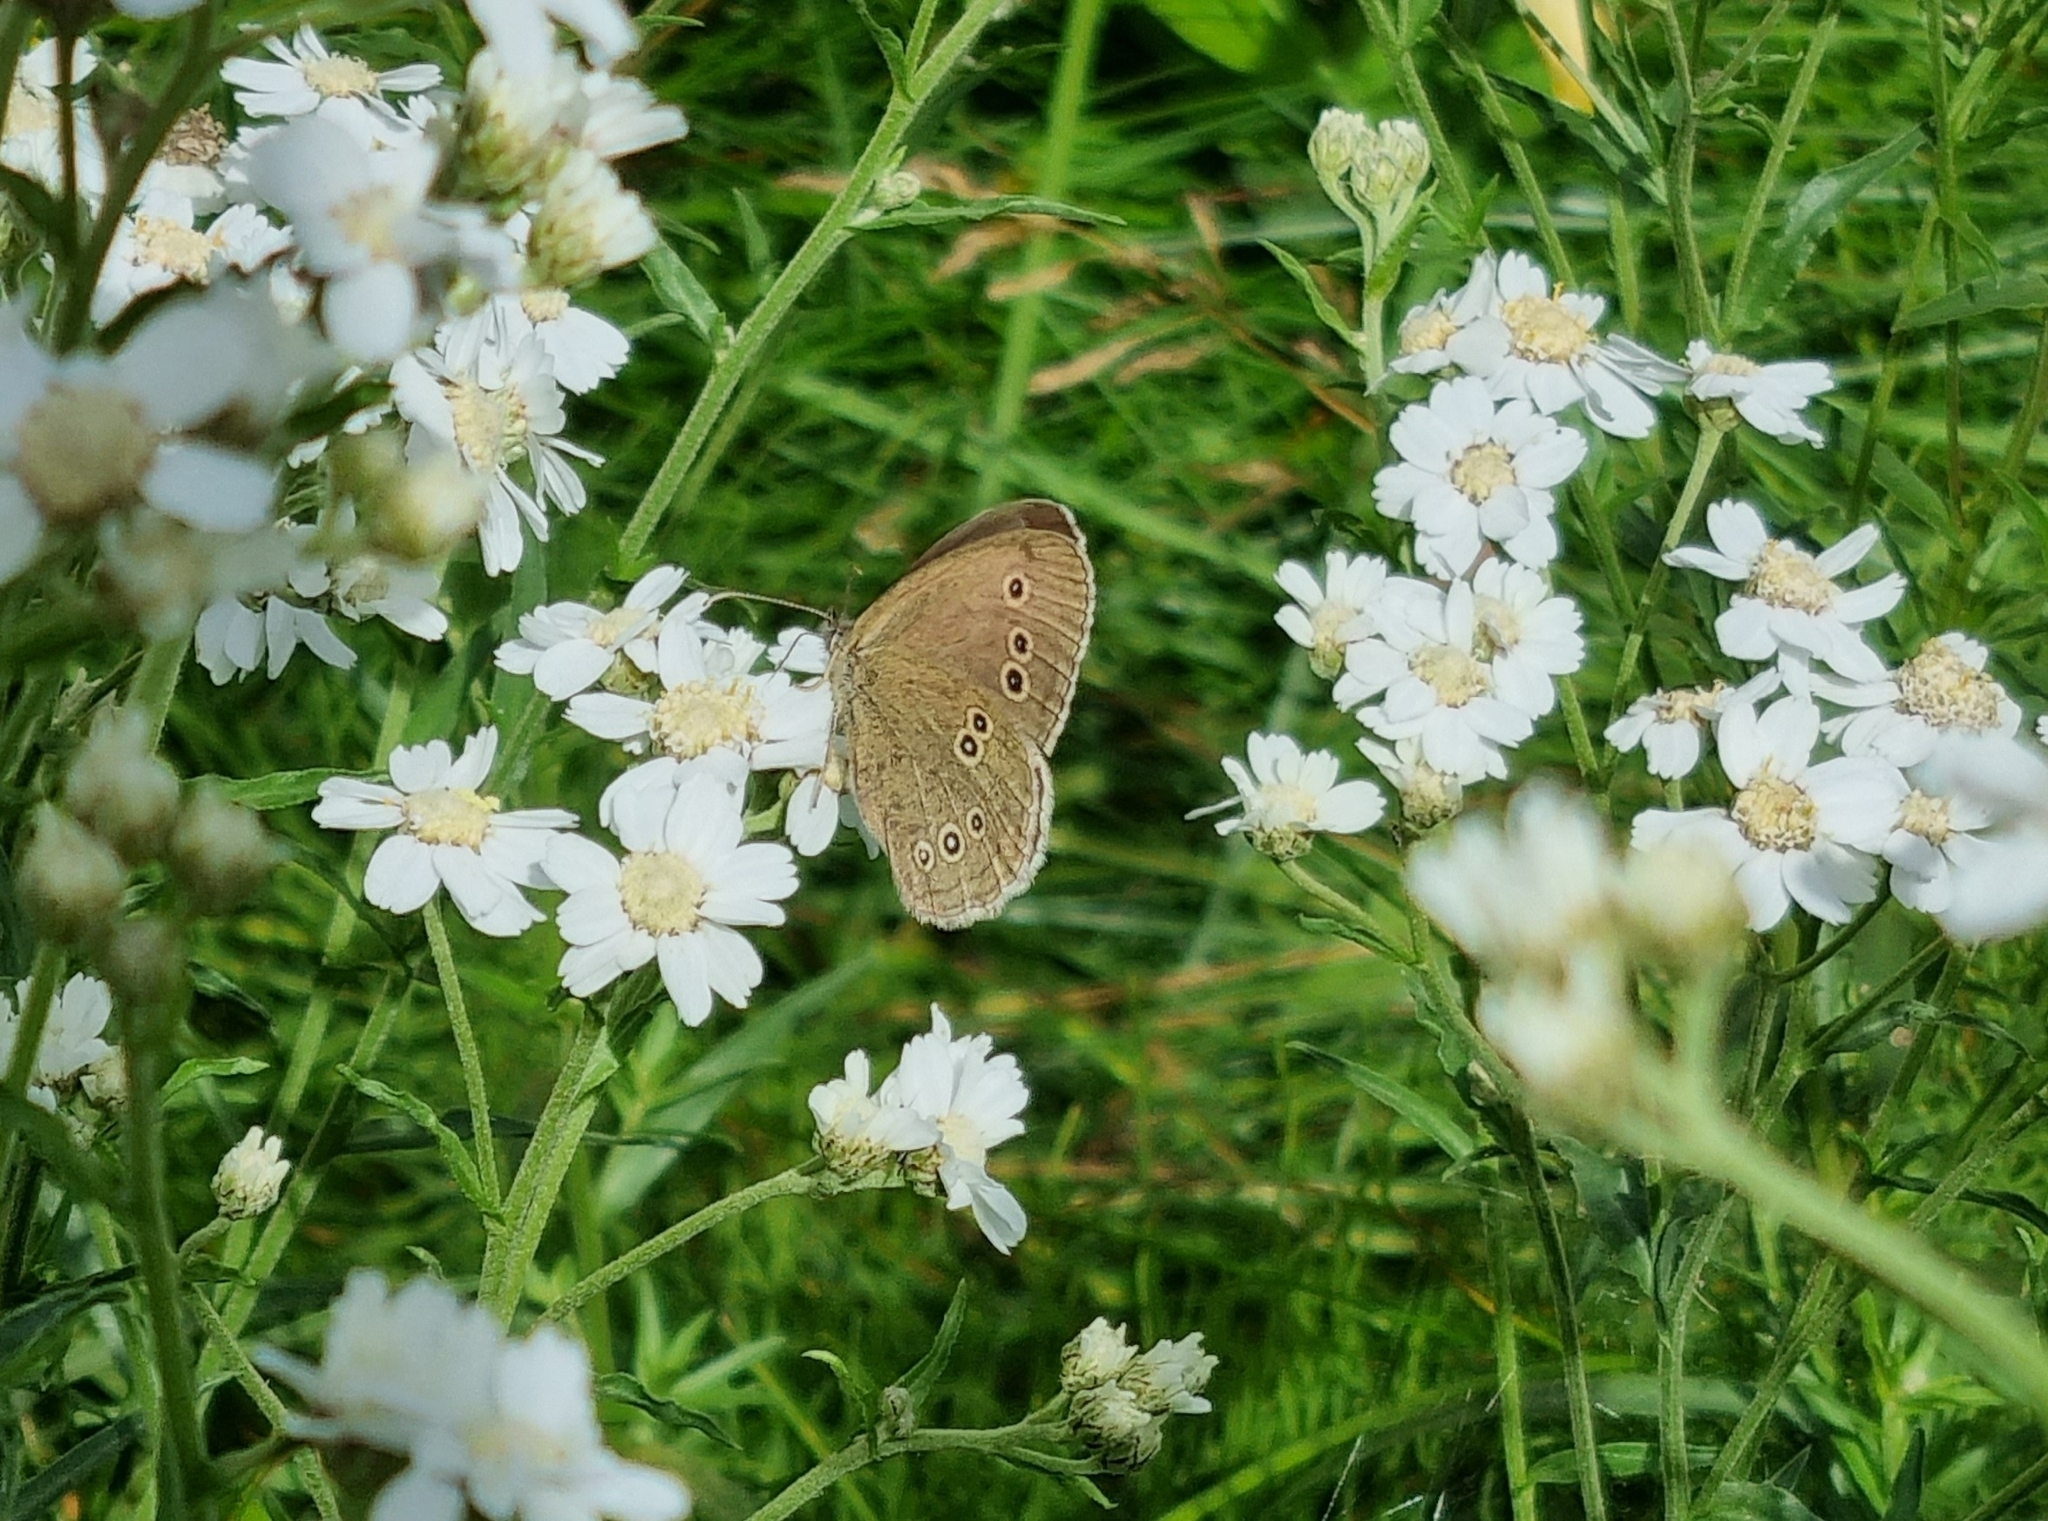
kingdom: Animalia
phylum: Arthropoda
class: Insecta
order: Lepidoptera
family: Nymphalidae
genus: Aphantopus
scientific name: Aphantopus hyperantus
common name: Ringlet
